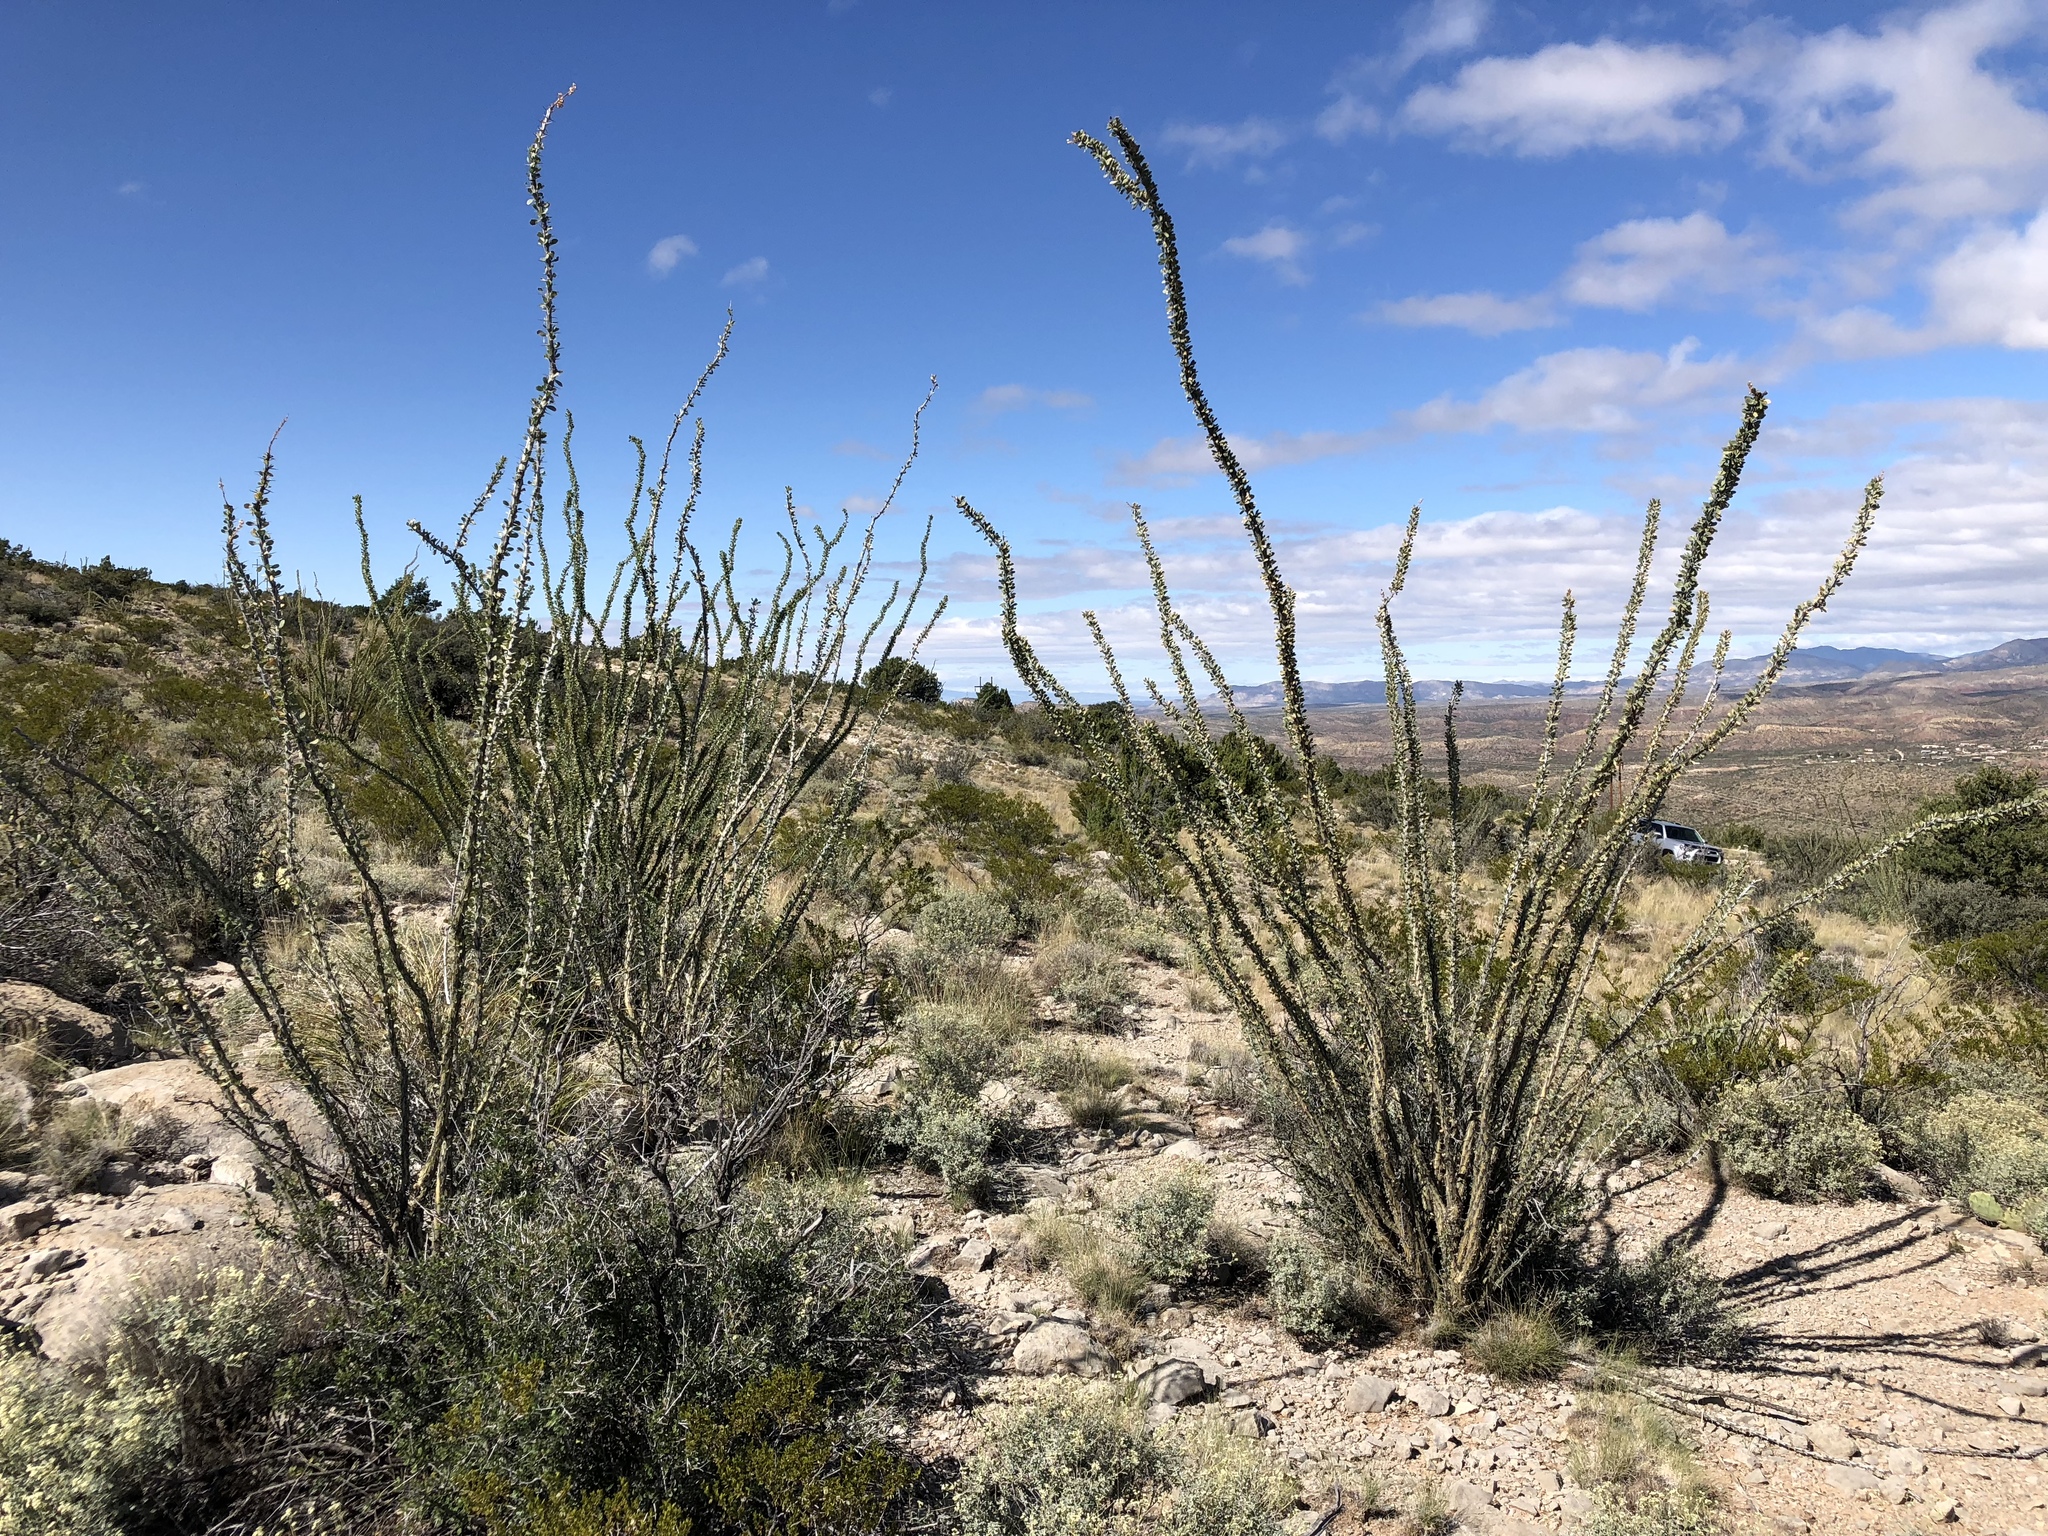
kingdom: Plantae
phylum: Tracheophyta
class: Magnoliopsida
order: Ericales
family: Fouquieriaceae
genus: Fouquieria
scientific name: Fouquieria splendens
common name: Vine-cactus
